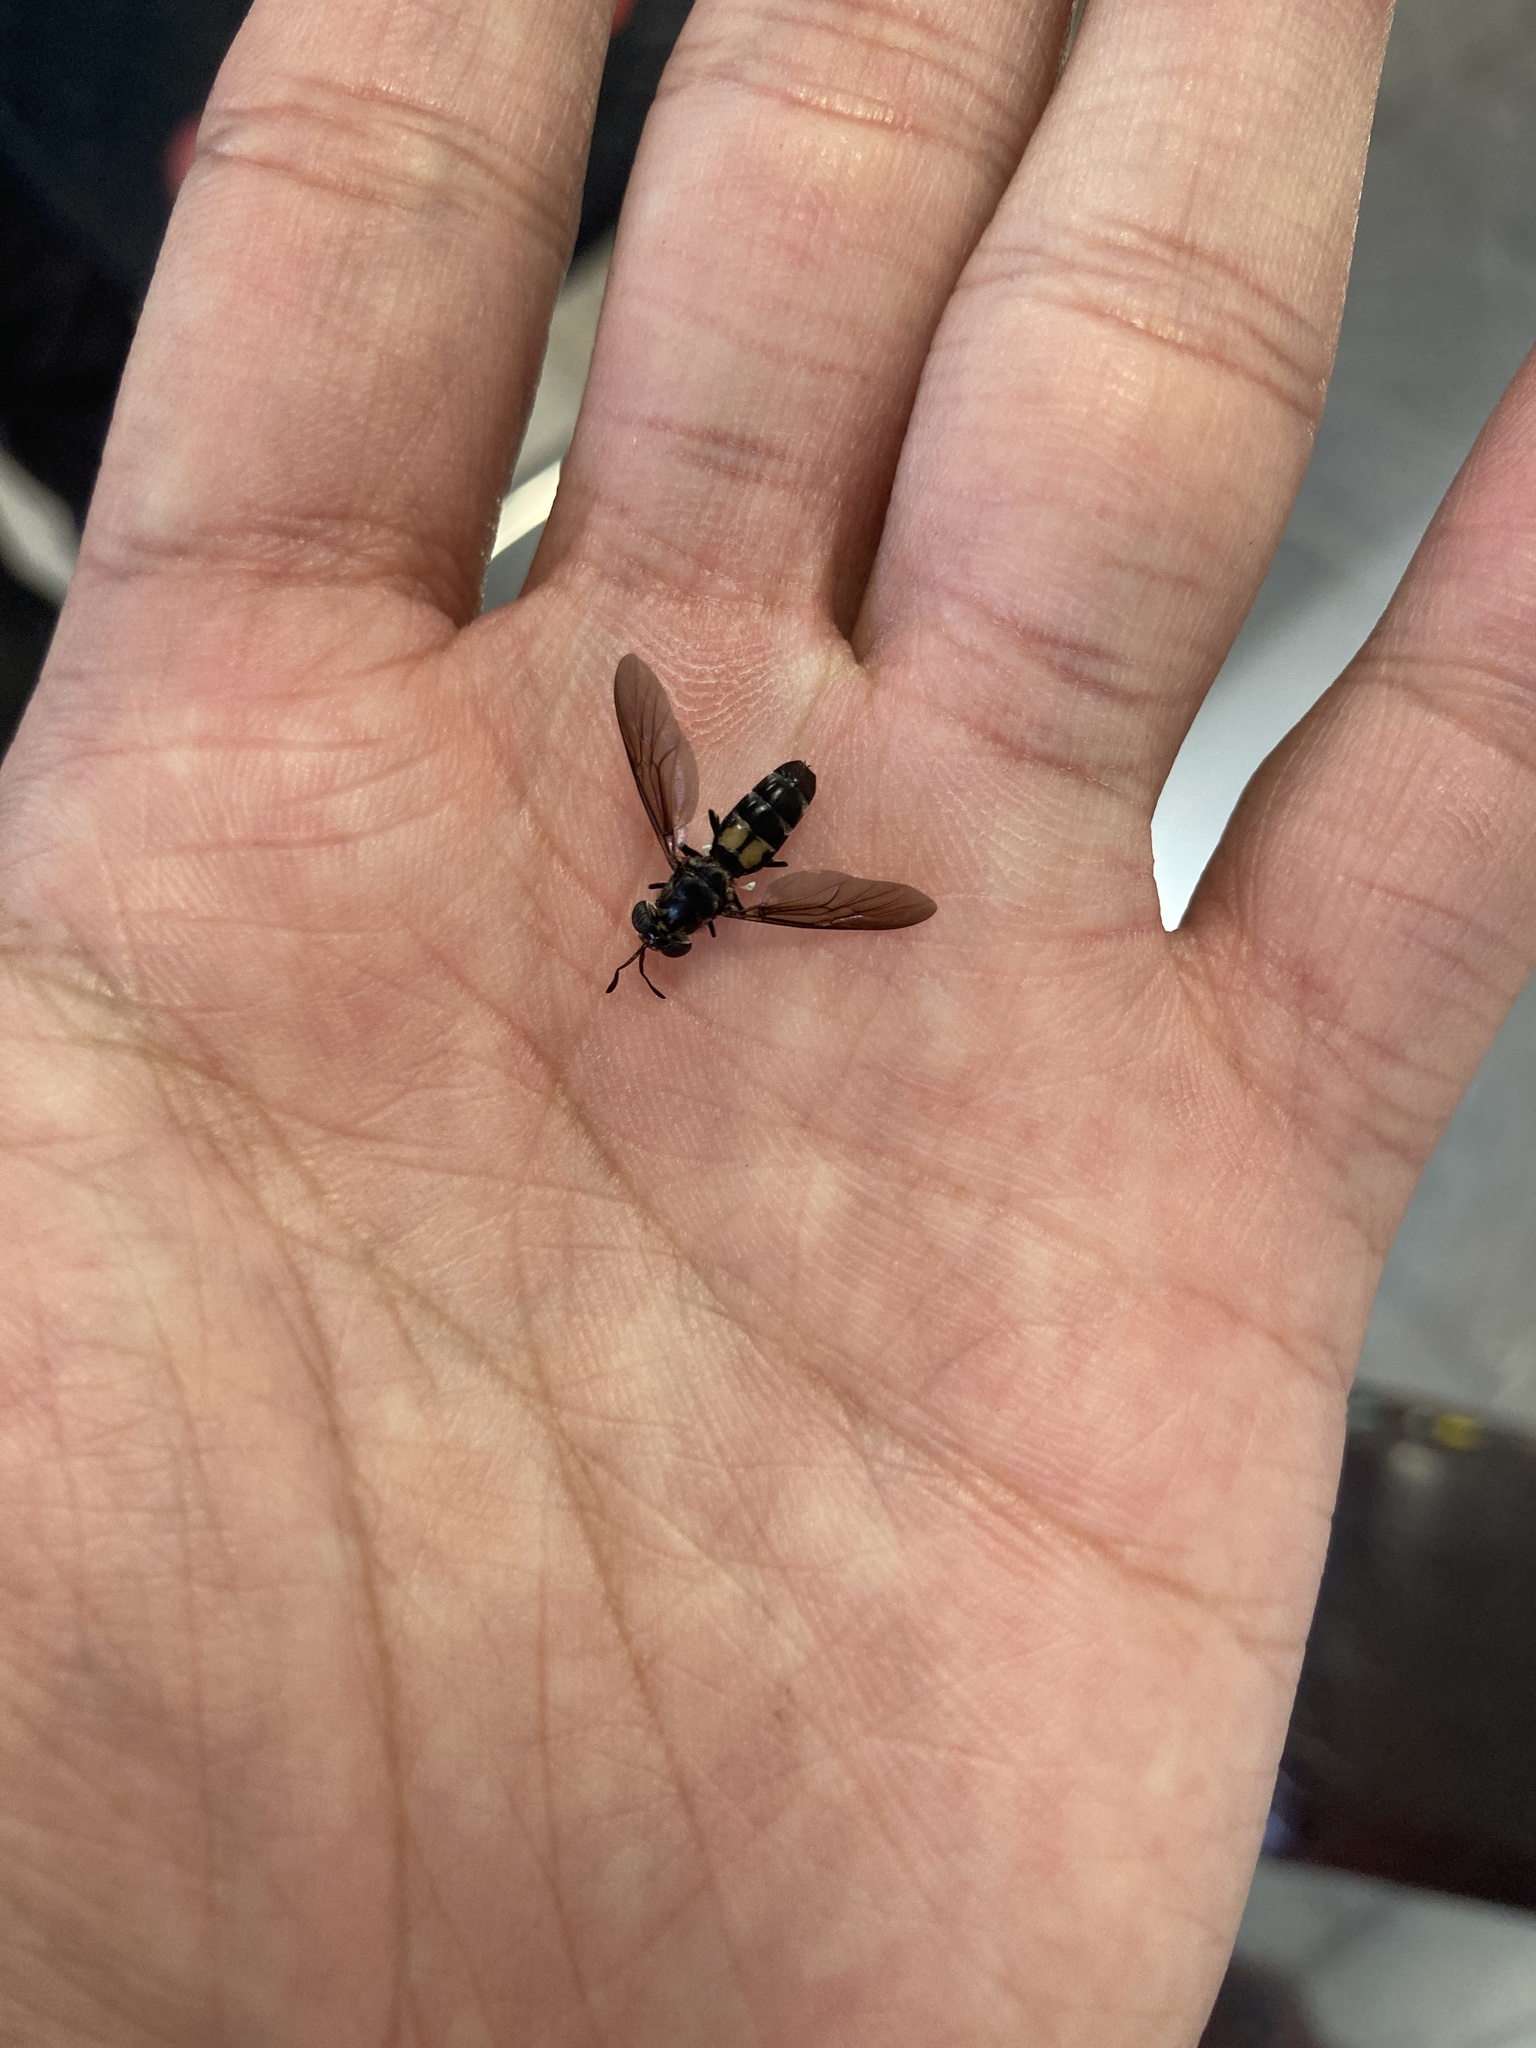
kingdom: Animalia
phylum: Arthropoda
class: Insecta
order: Diptera
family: Stratiomyidae
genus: Hermetia
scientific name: Hermetia illucens
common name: Black soldier fly
